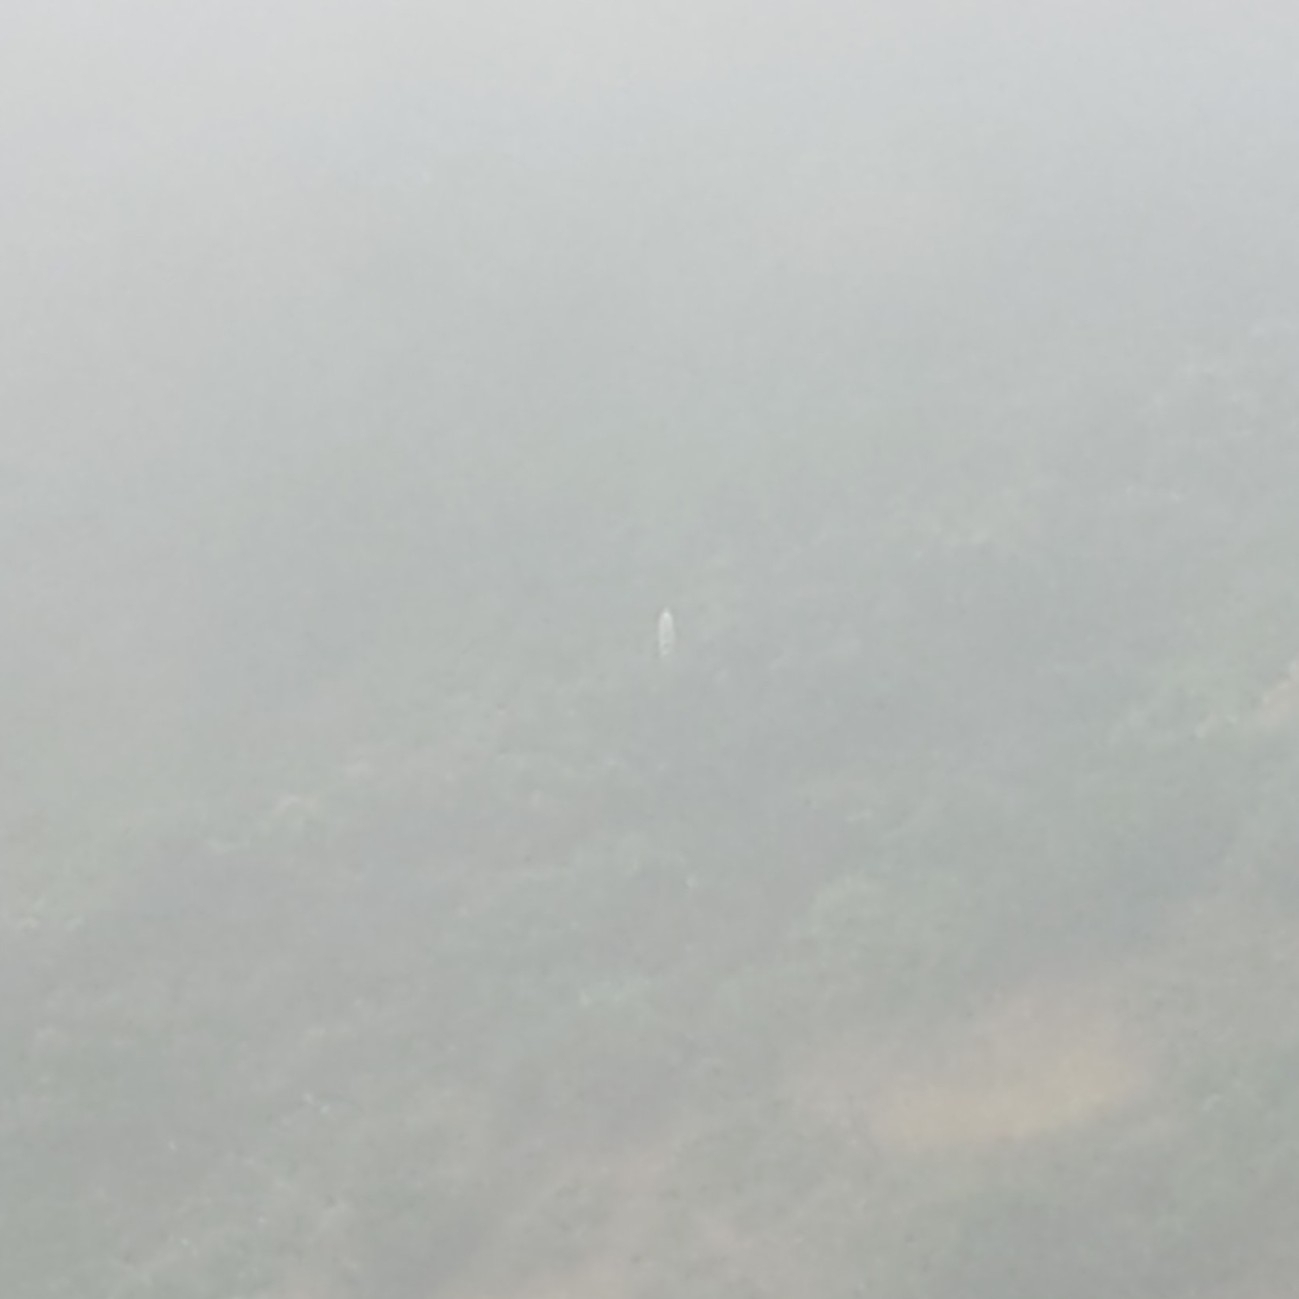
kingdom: Plantae
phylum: Tracheophyta
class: Liliopsida
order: Asparagales
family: Asparagaceae
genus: Hesperoyucca
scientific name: Hesperoyucca whipplei
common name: Our lord's-candle
